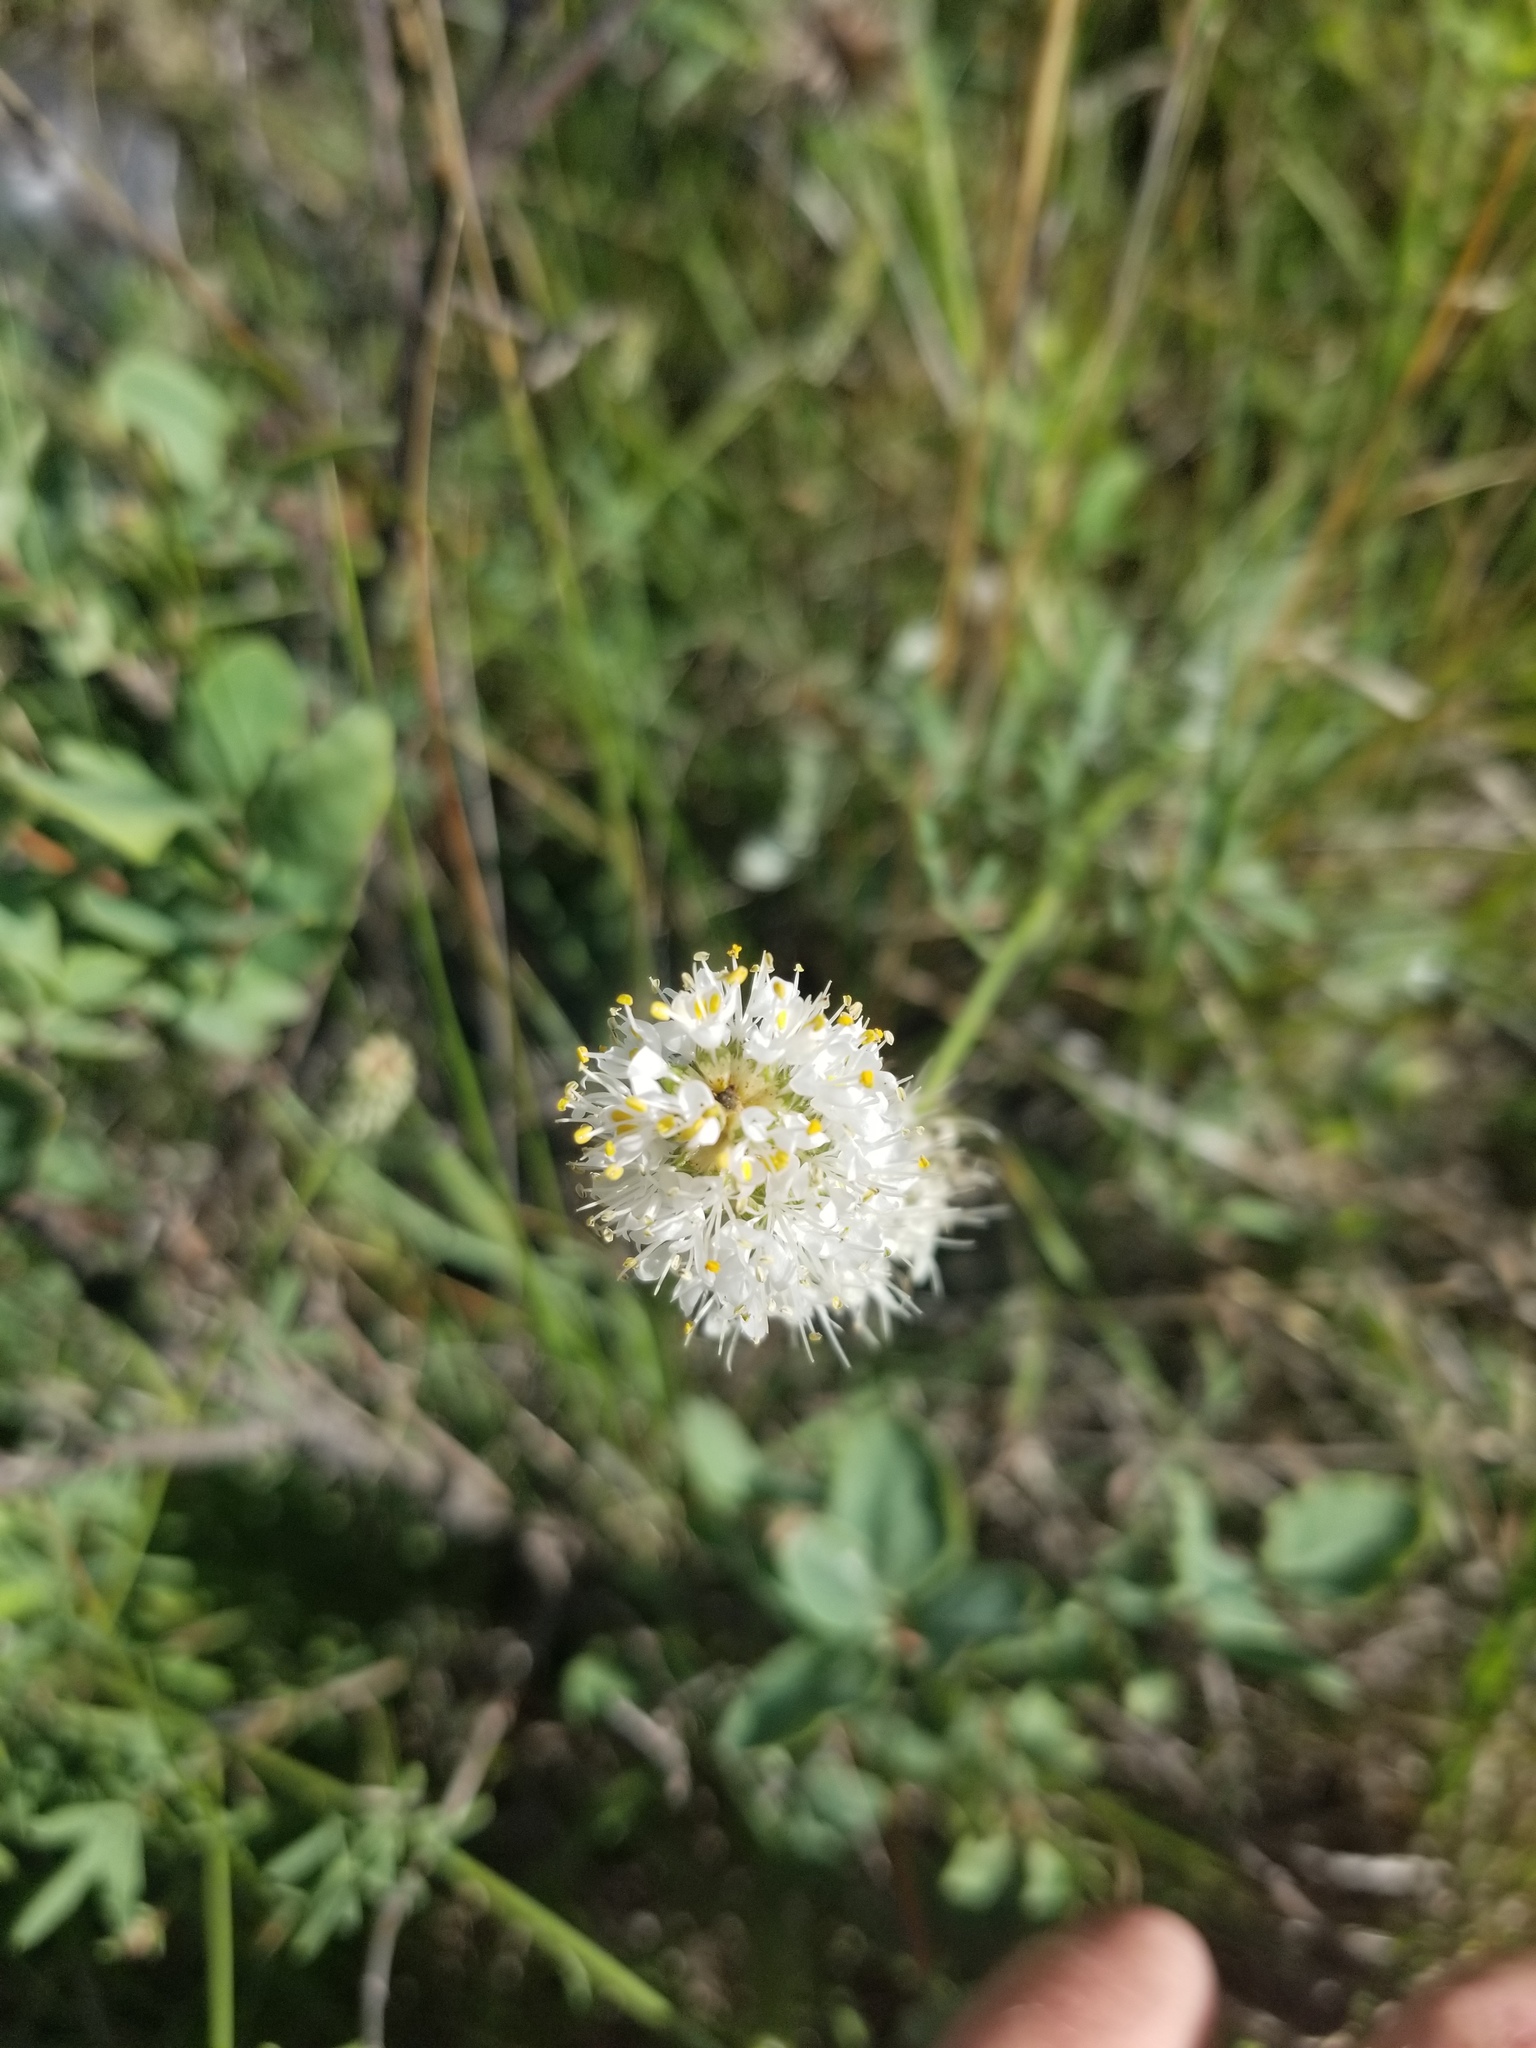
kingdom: Plantae
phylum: Tracheophyta
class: Magnoliopsida
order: Fabales
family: Fabaceae
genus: Dalea
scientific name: Dalea candida
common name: White prairie-clover
